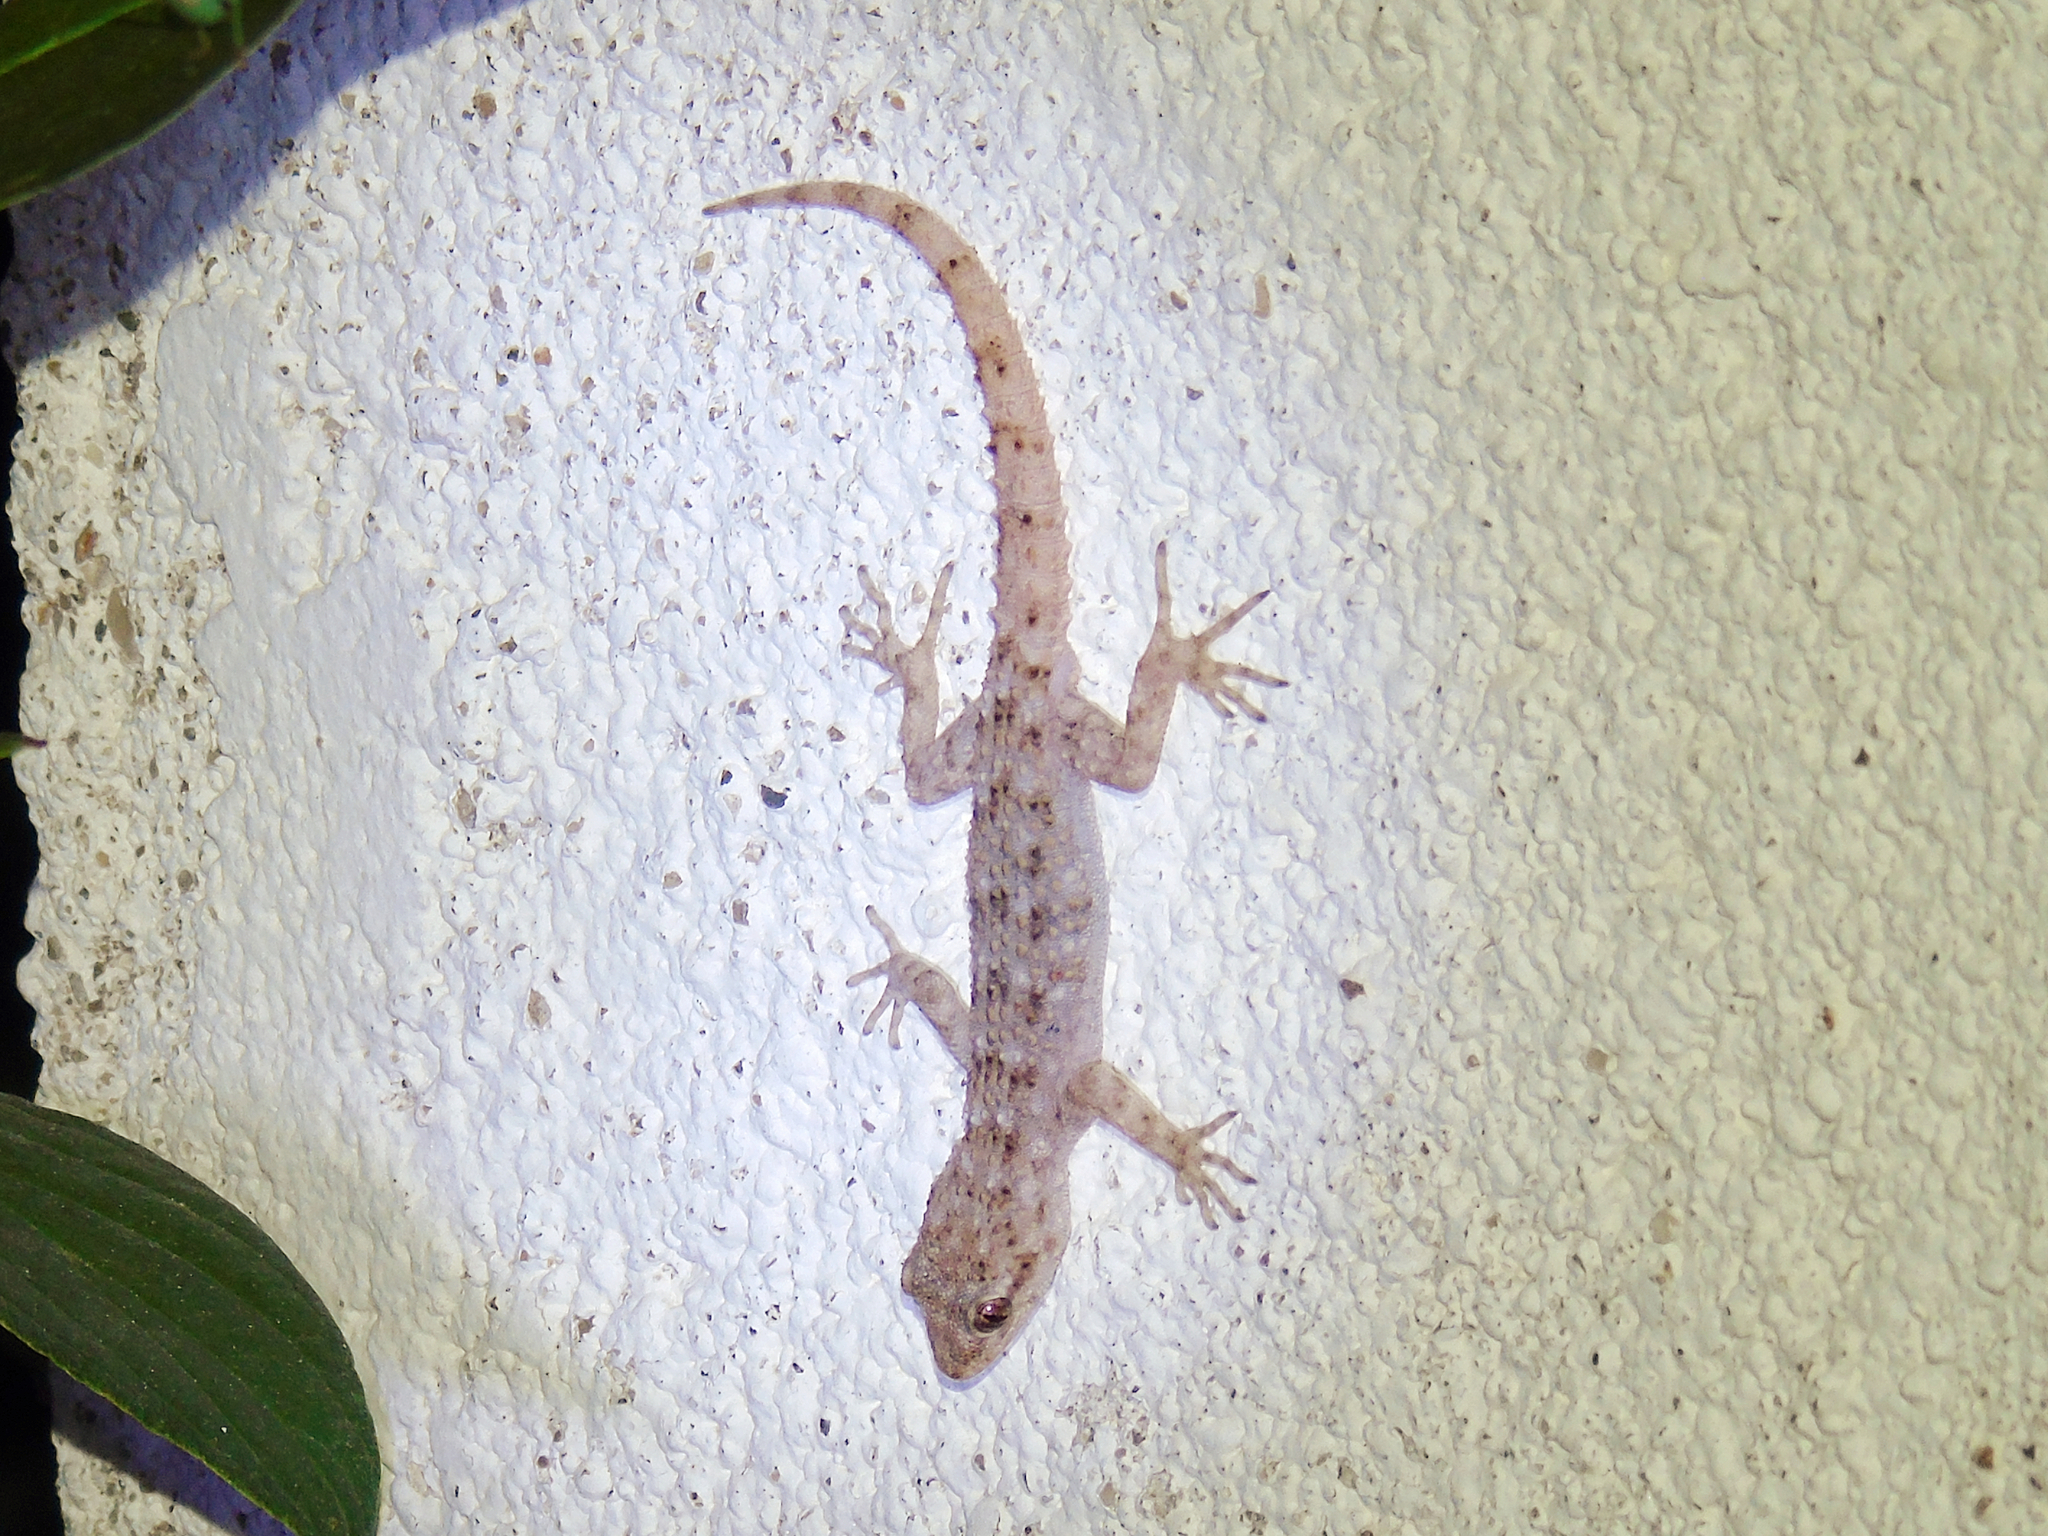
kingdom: Animalia
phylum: Chordata
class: Squamata
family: Gekkonidae
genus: Mediodactylus
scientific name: Mediodactylus kotschyi
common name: Kotschy's gecko
